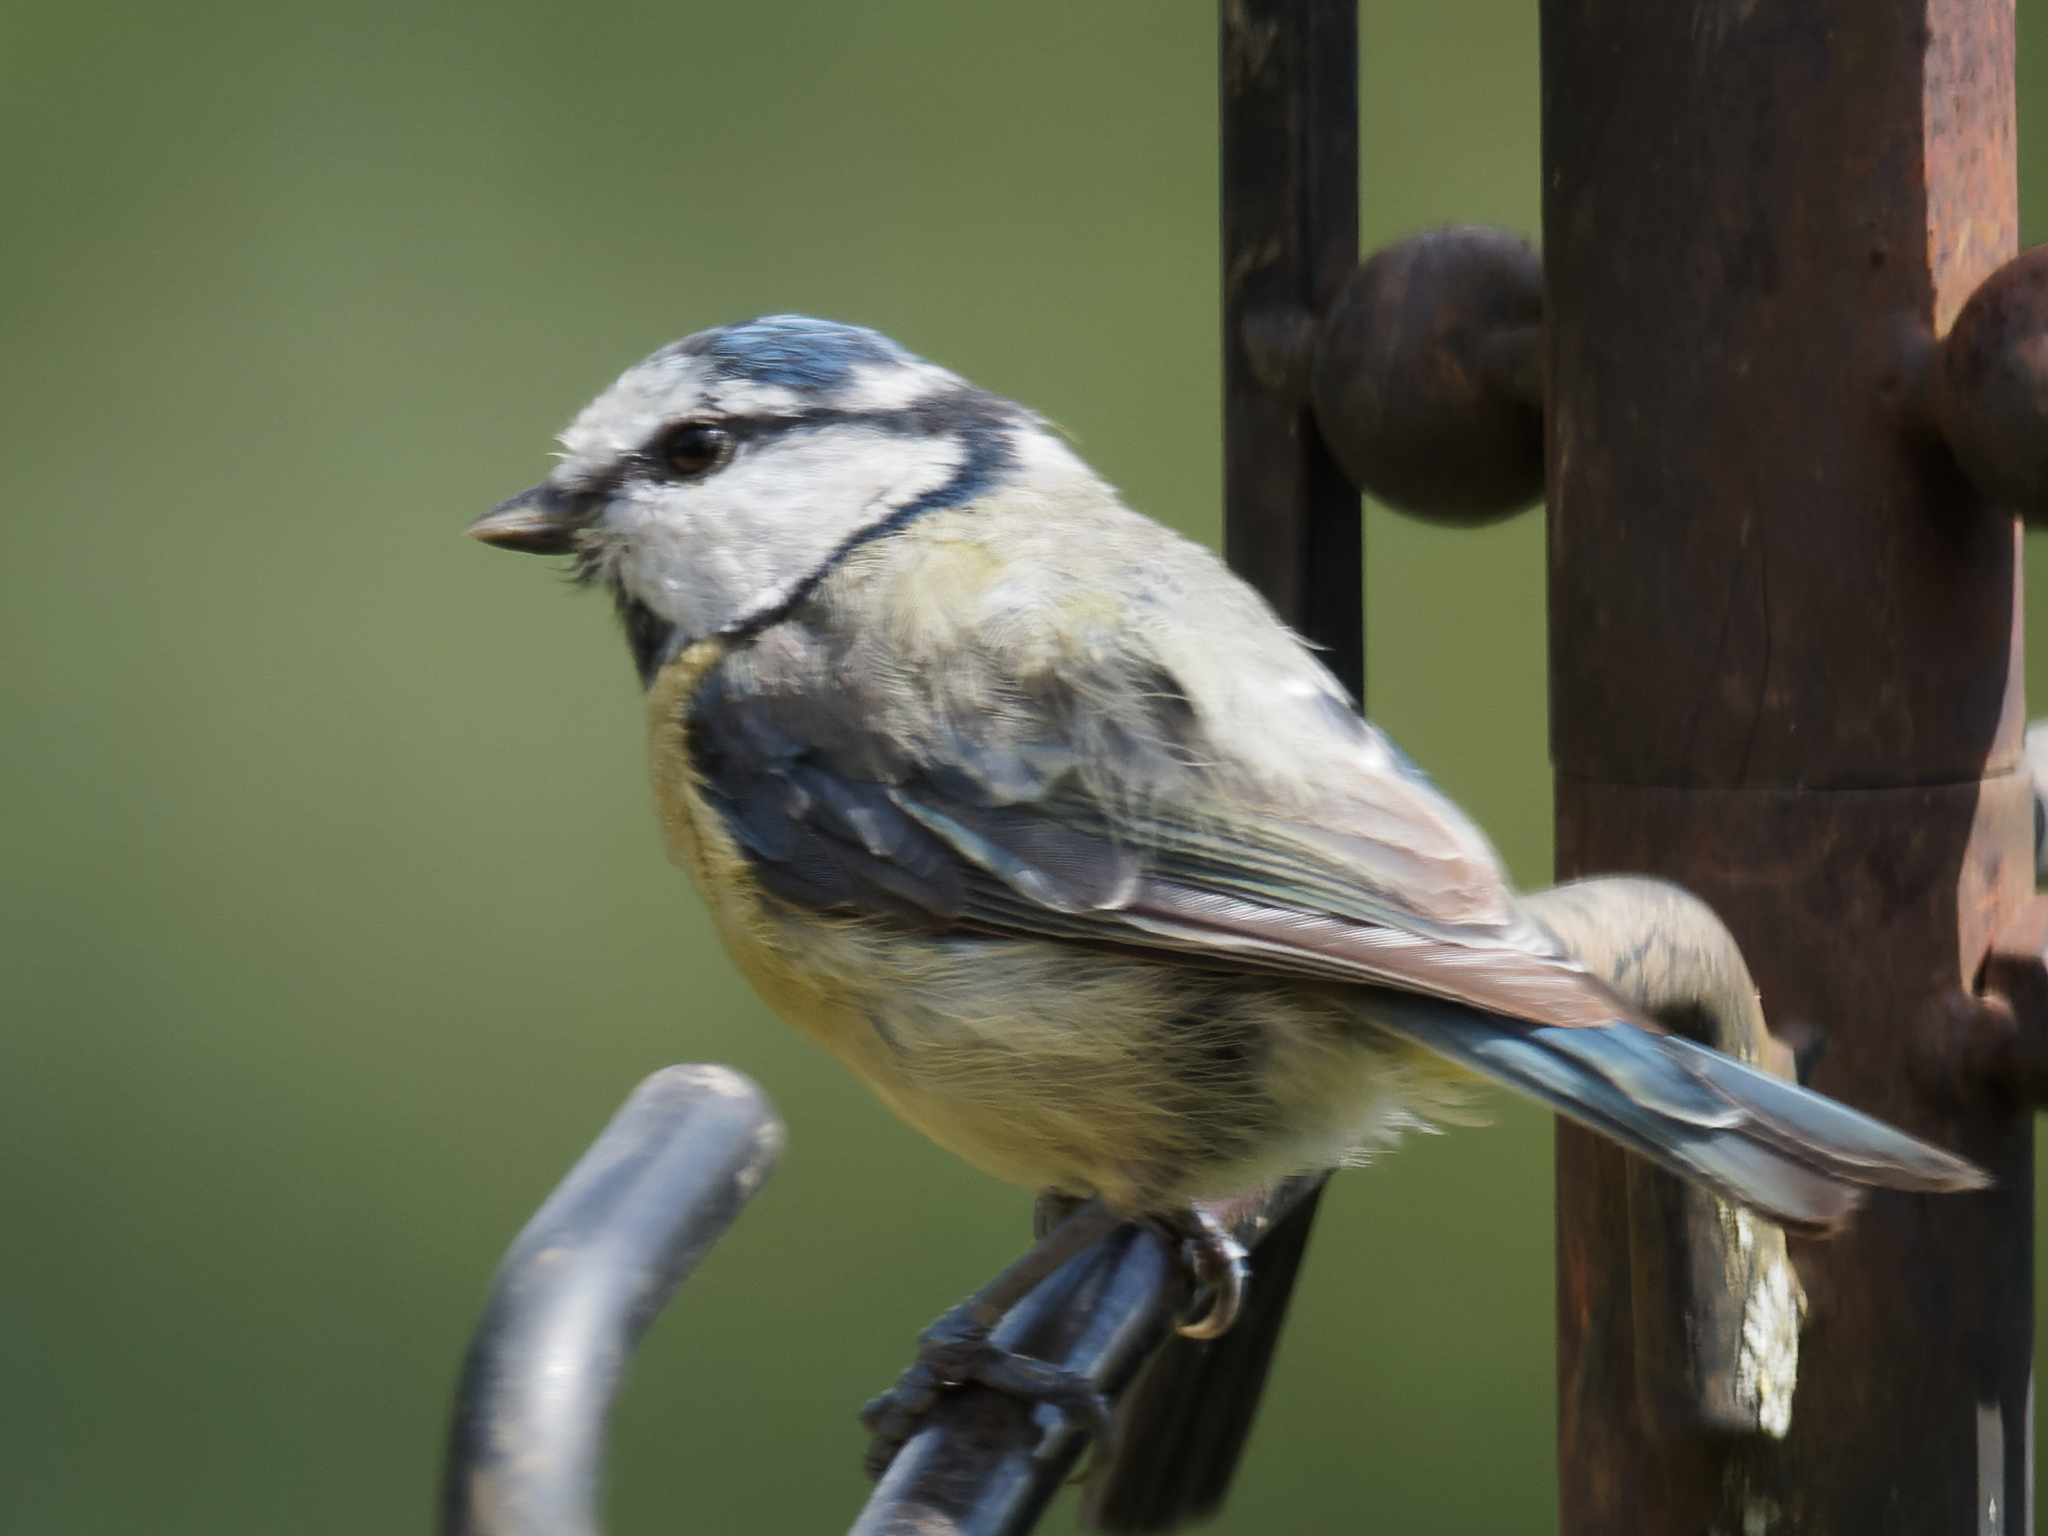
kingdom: Animalia
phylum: Chordata
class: Aves
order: Passeriformes
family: Paridae
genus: Cyanistes
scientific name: Cyanistes caeruleus
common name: Eurasian blue tit
